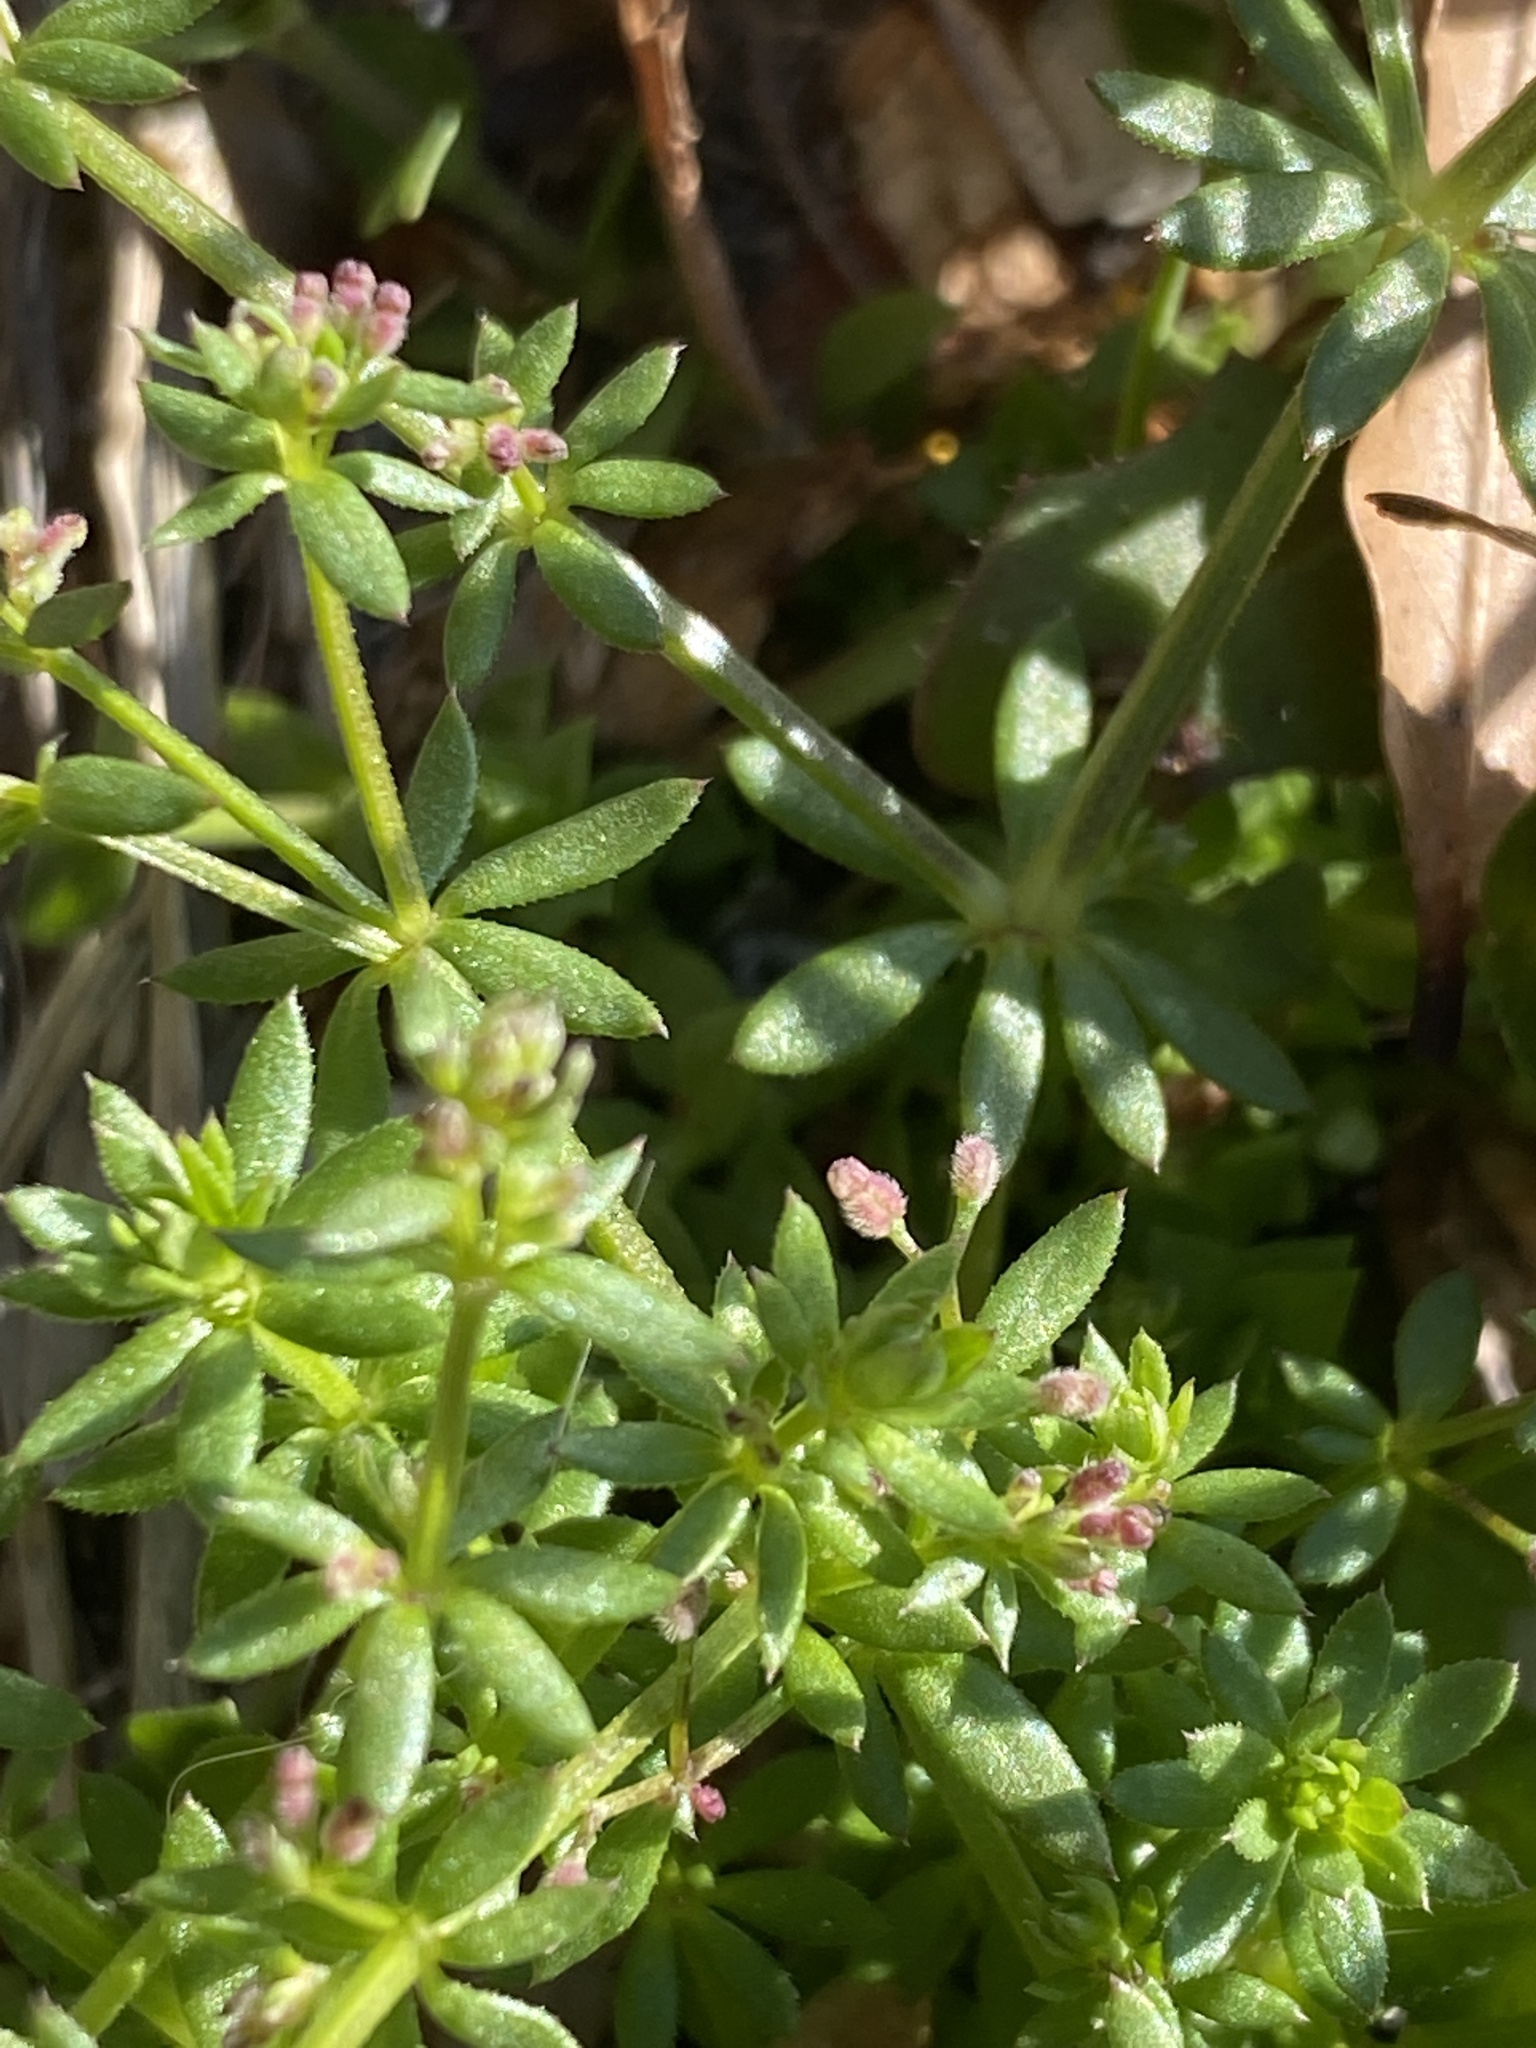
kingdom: Plantae
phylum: Tracheophyta
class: Magnoliopsida
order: Gentianales
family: Rubiaceae
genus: Sherardia
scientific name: Sherardia arvensis
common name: Field madder
